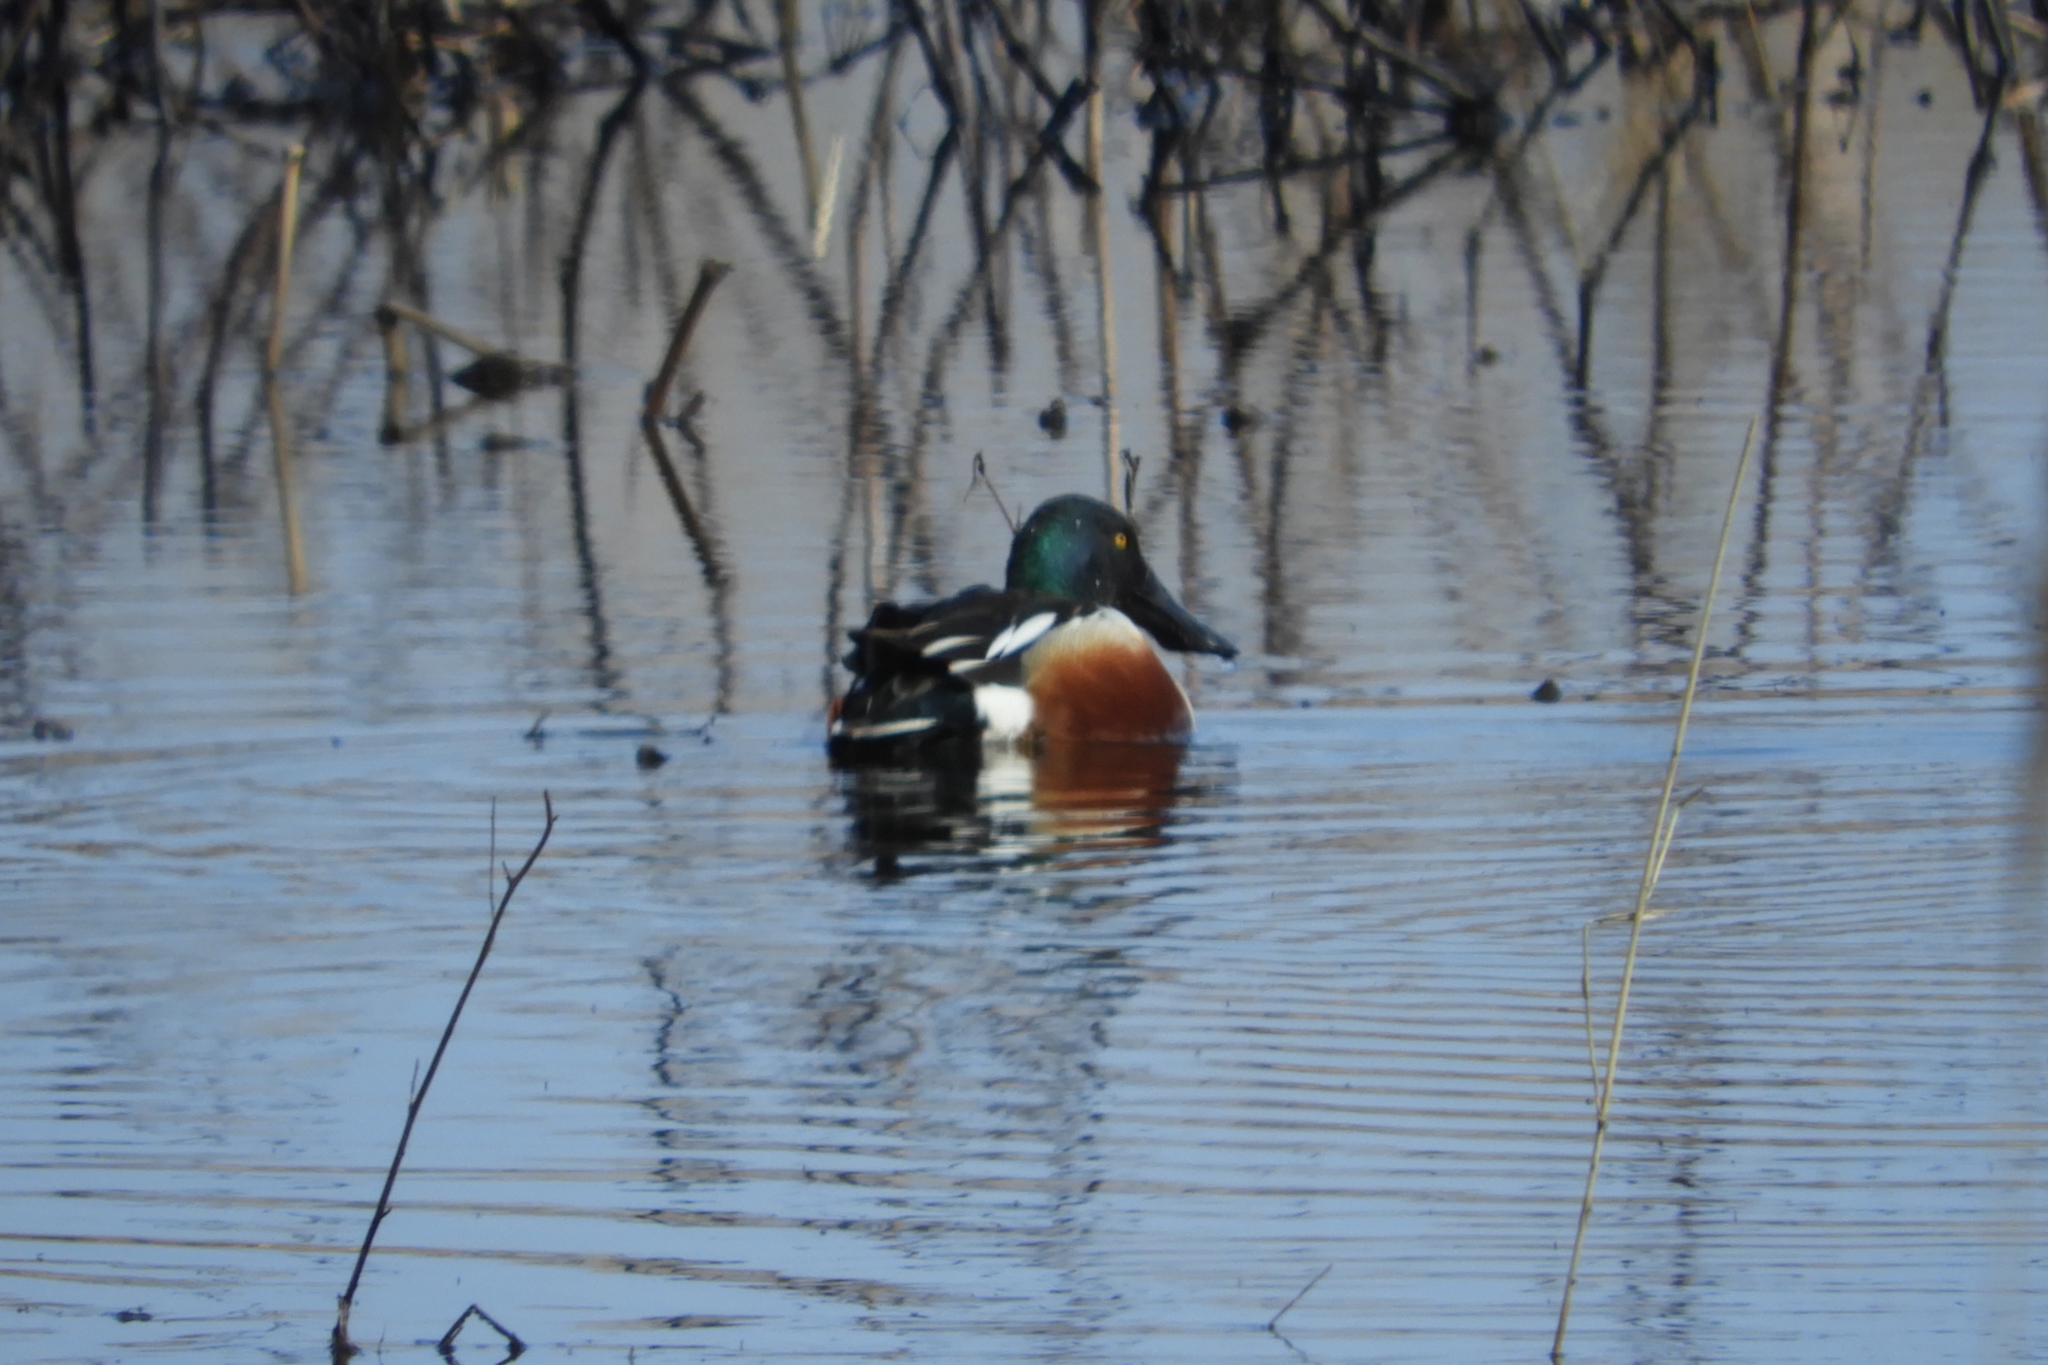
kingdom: Animalia
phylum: Chordata
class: Aves
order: Anseriformes
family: Anatidae
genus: Spatula
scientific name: Spatula clypeata
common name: Northern shoveler
